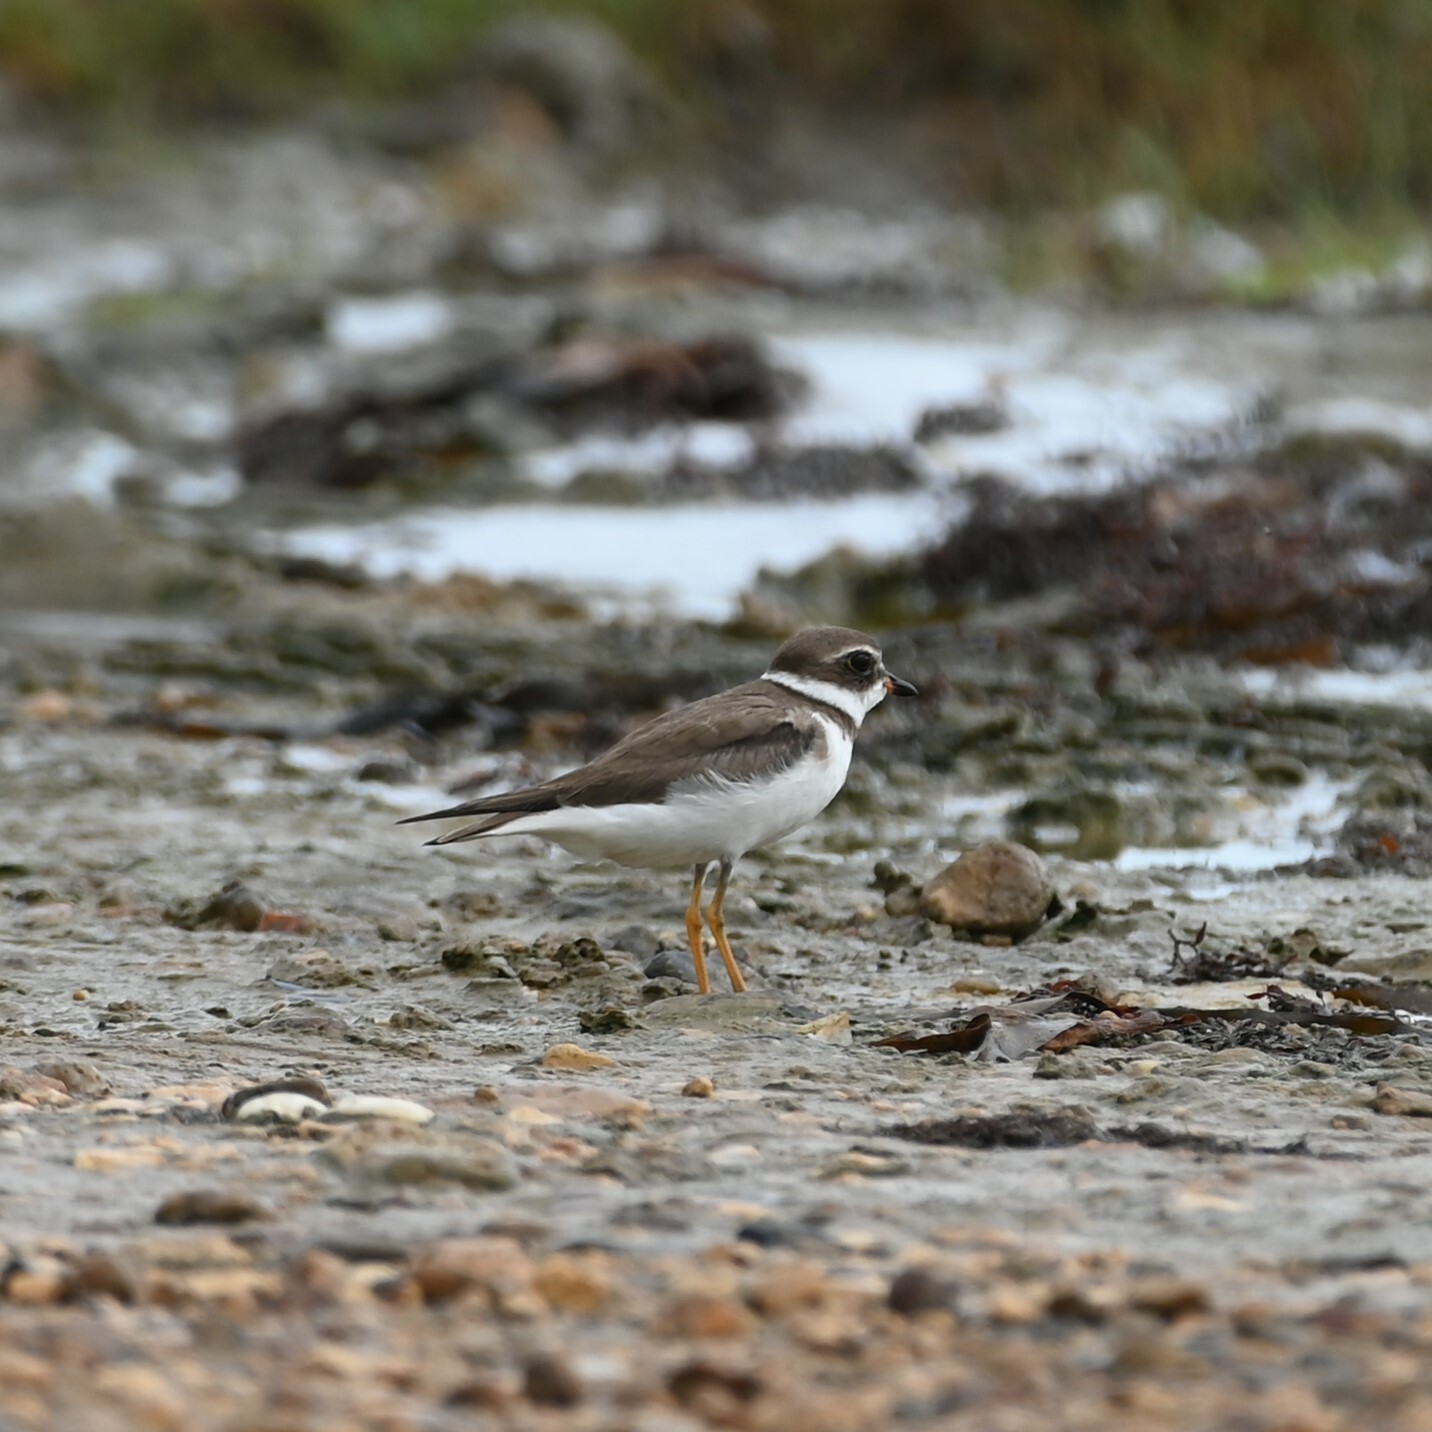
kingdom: Animalia
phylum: Chordata
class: Aves
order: Charadriiformes
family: Charadriidae
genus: Charadrius
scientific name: Charadrius semipalmatus
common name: Semipalmated plover
